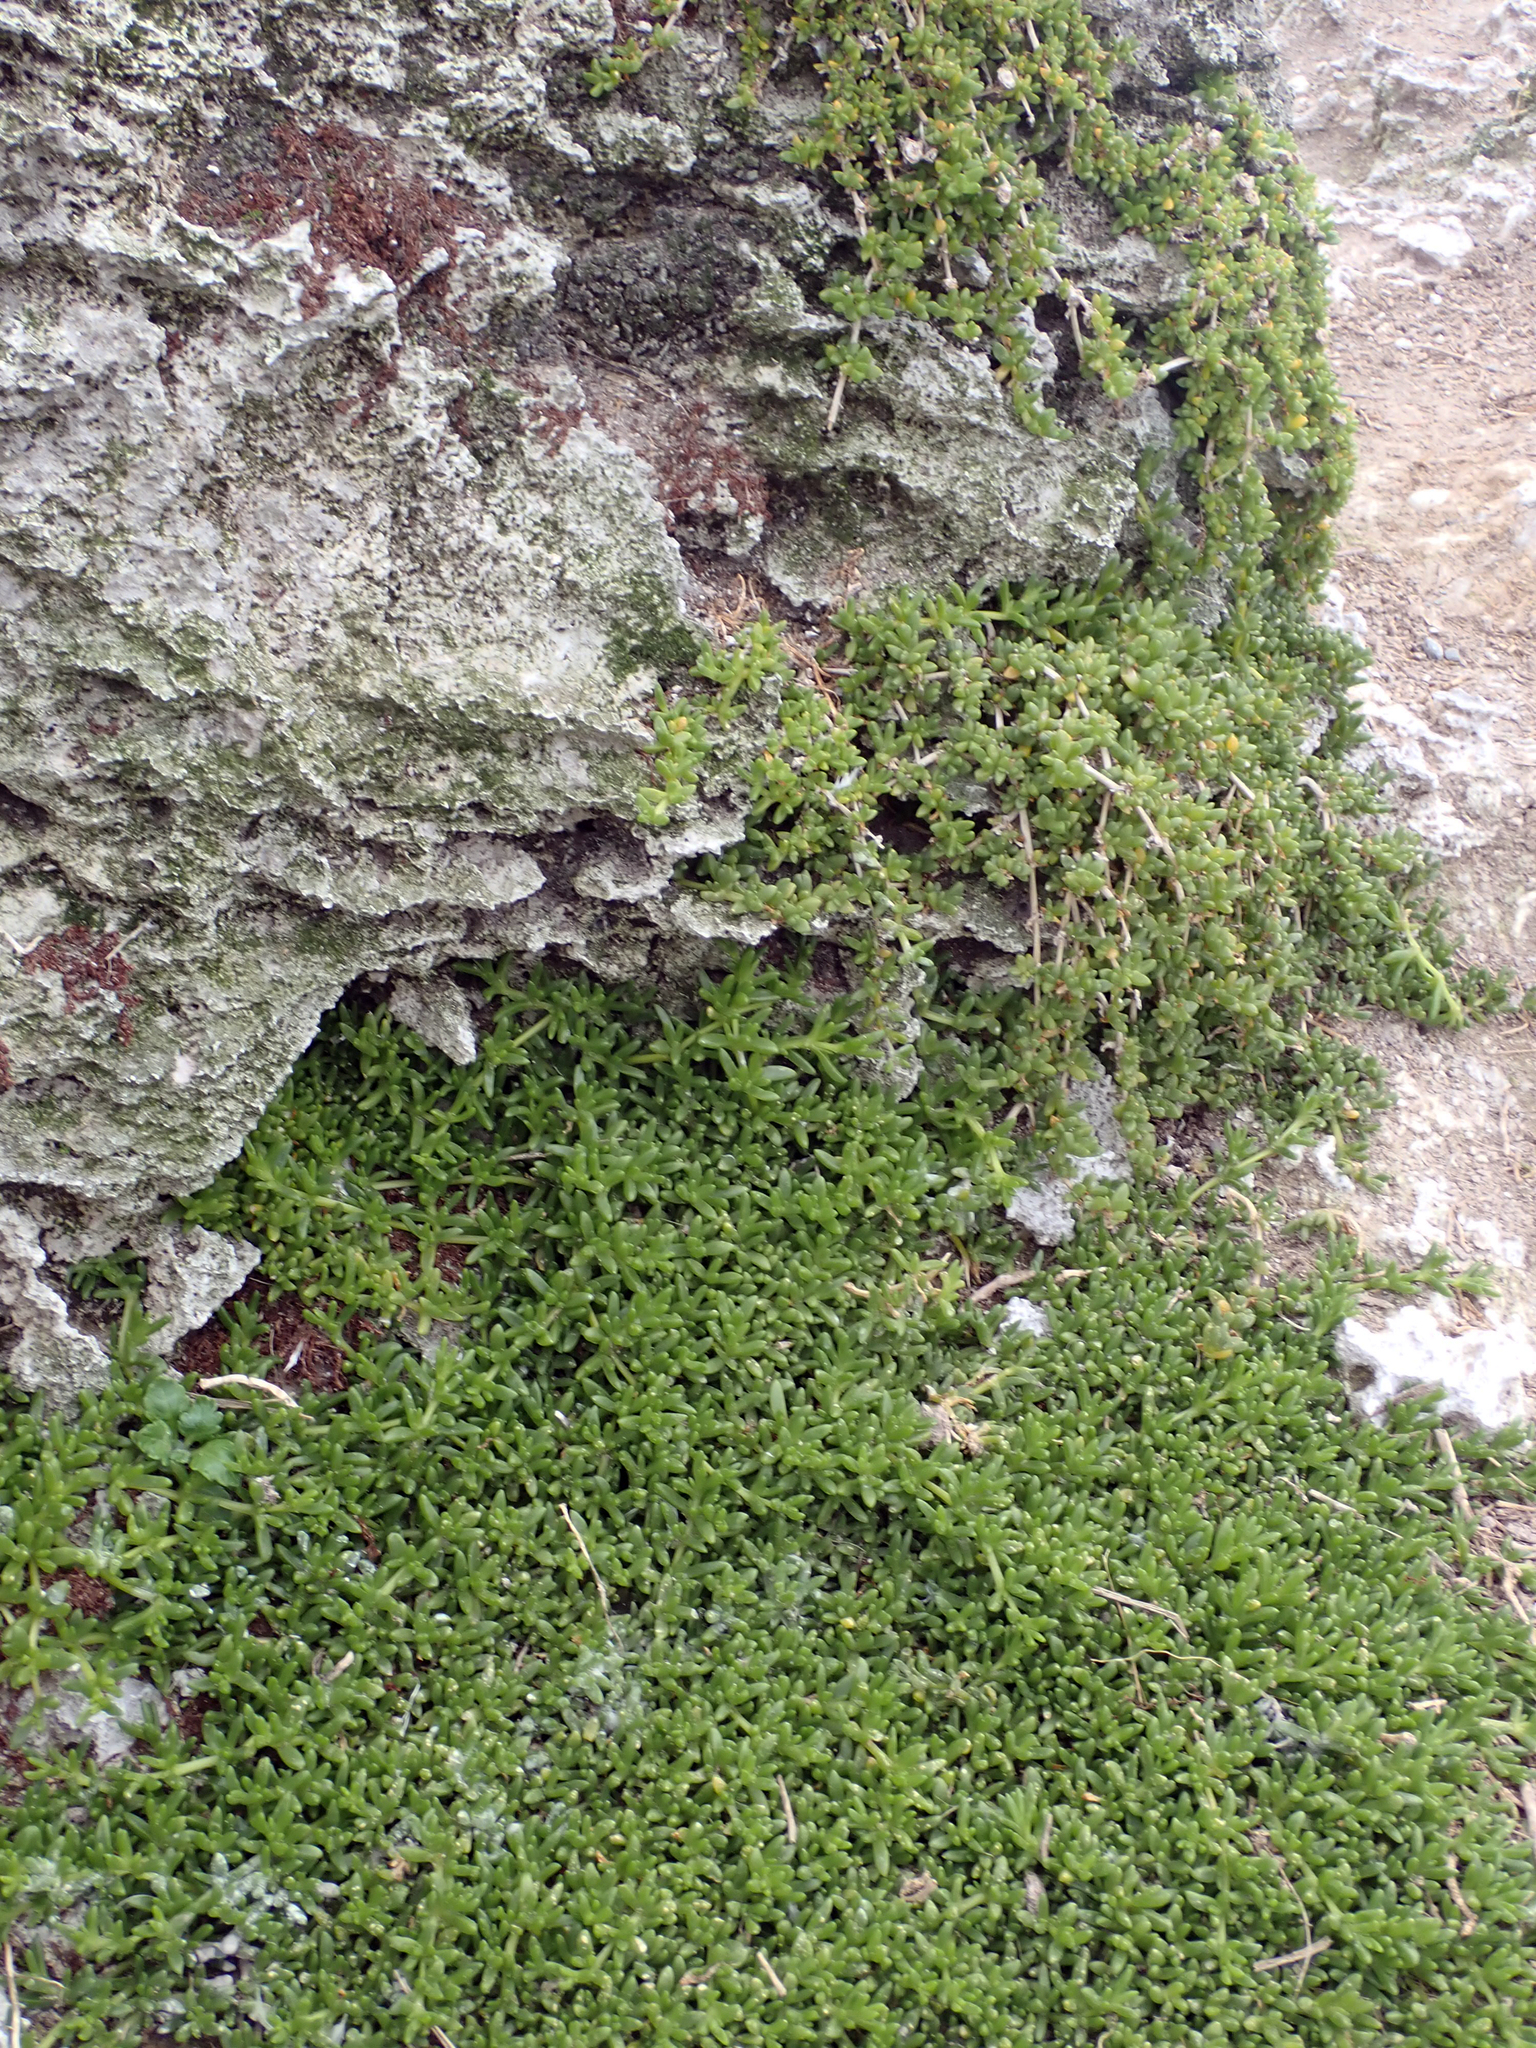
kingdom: Plantae
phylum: Tracheophyta
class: Magnoliopsida
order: Caryophyllales
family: Aizoaceae
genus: Disphyma
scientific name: Disphyma papillatum
